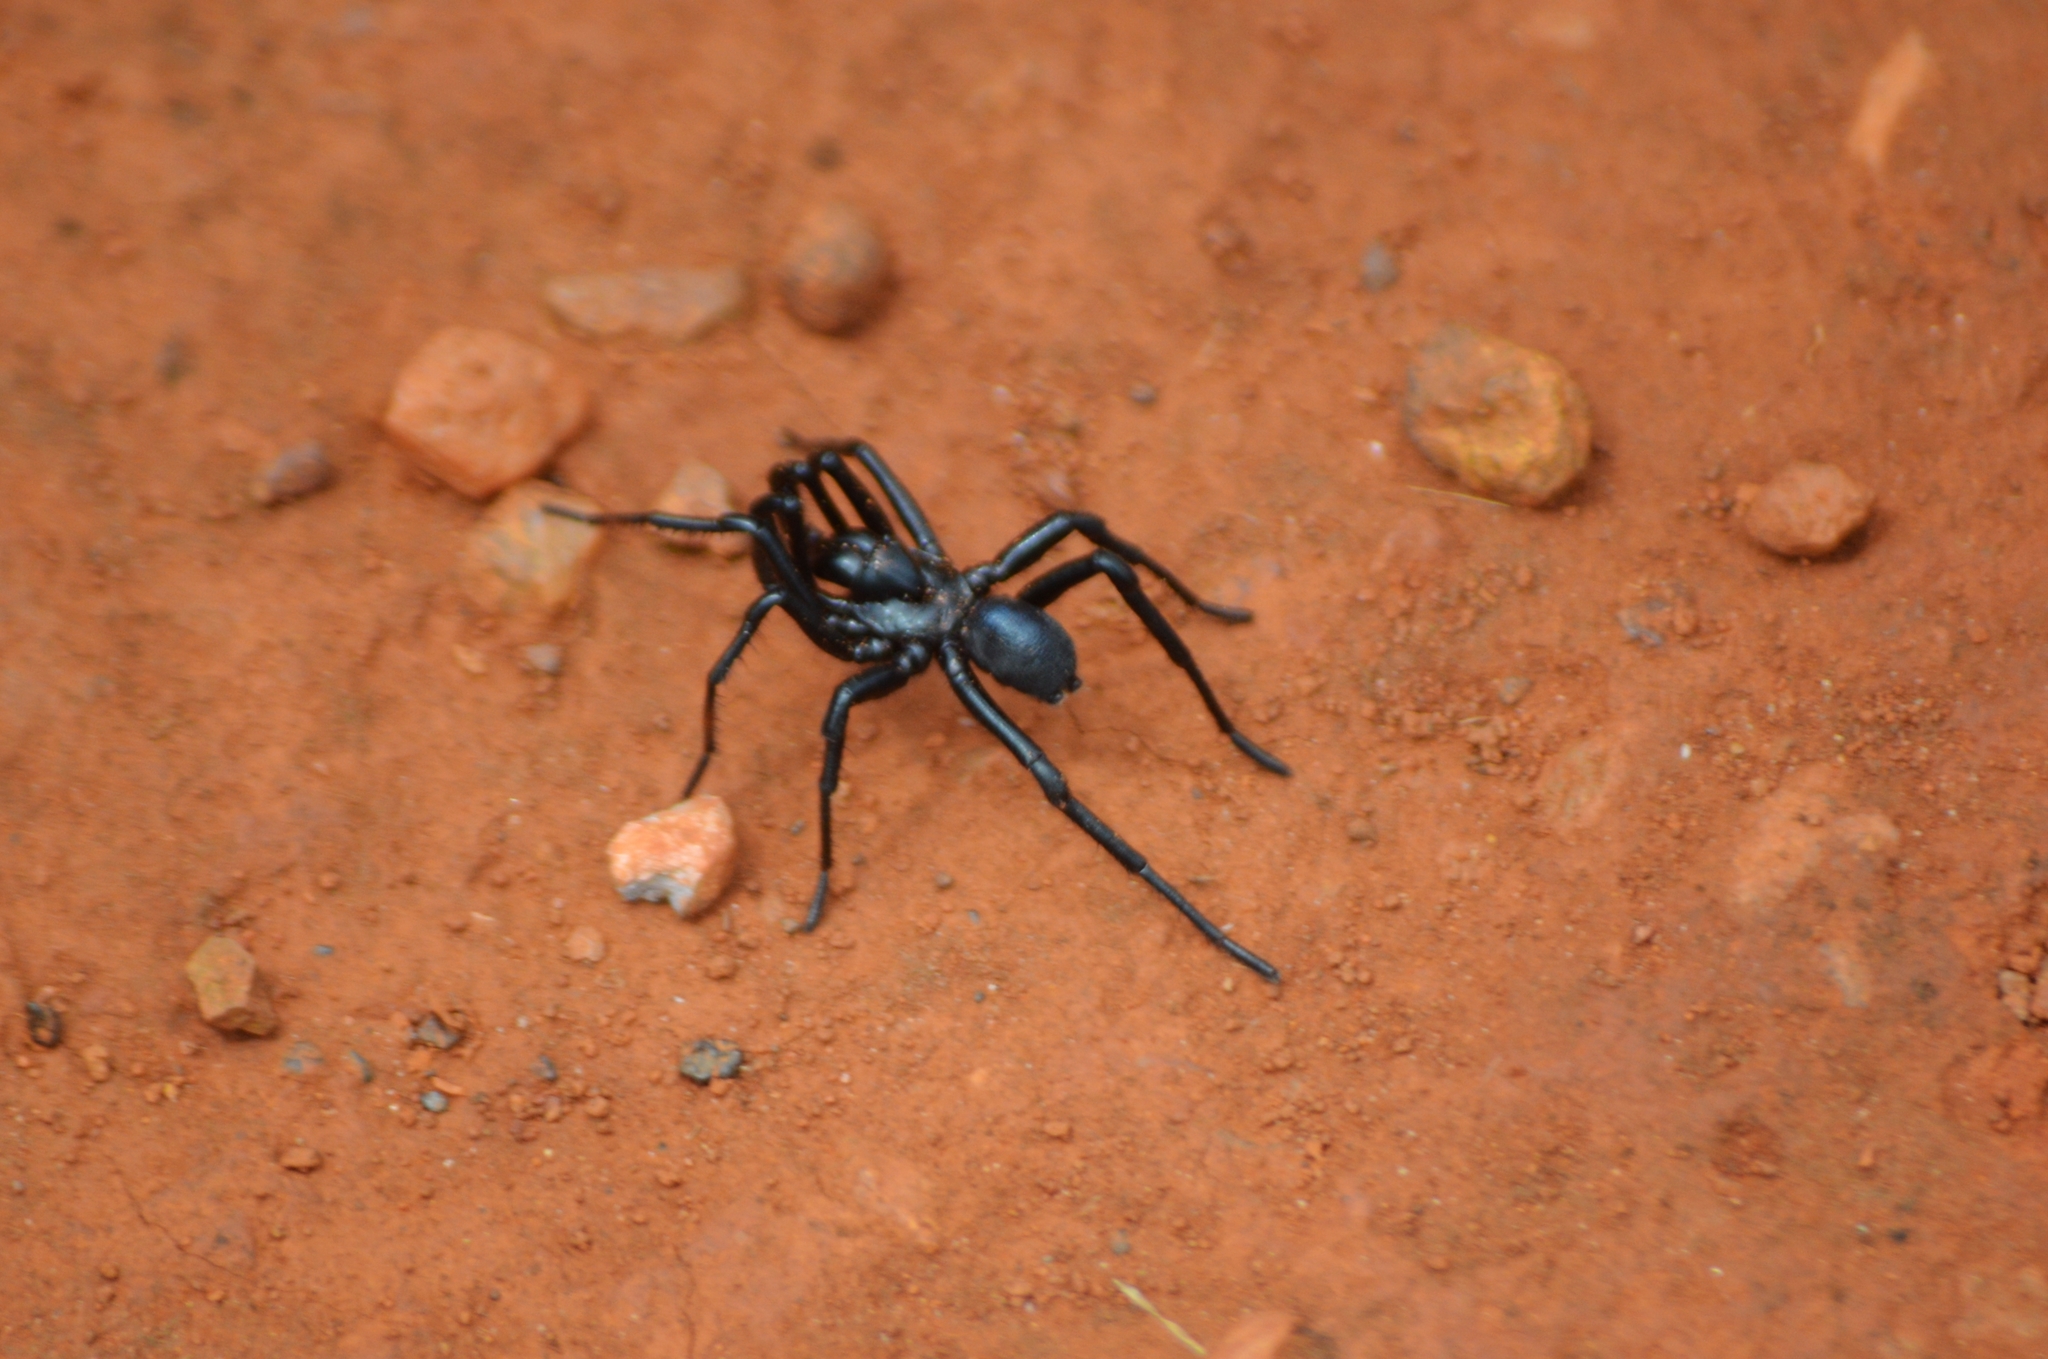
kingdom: Animalia
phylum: Arthropoda
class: Arachnida
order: Araneae
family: Actinopodidae
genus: Actinopus
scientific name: Actinopus candango
